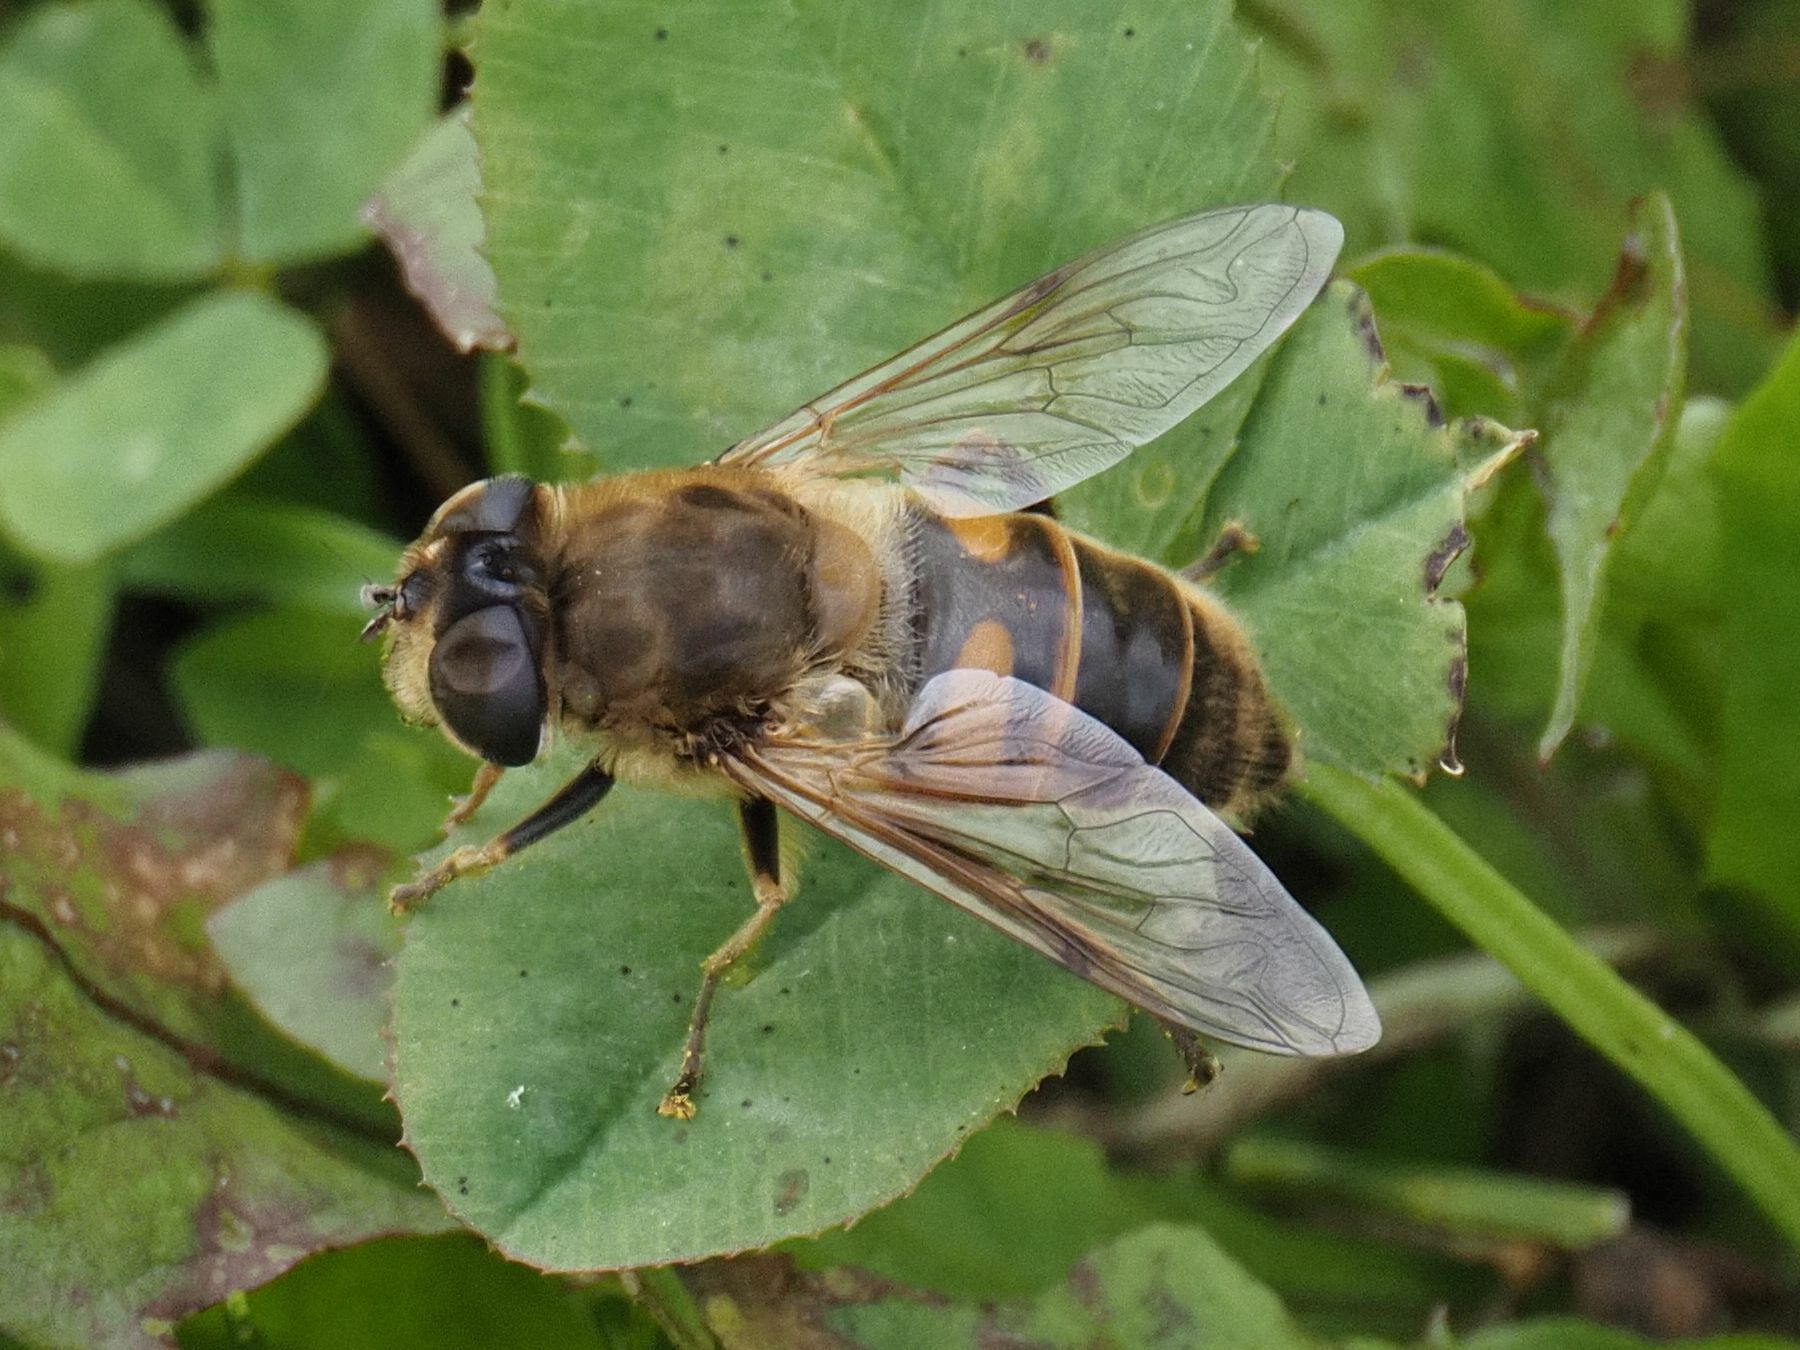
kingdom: Animalia
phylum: Arthropoda
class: Insecta
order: Diptera
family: Syrphidae
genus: Eristalis
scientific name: Eristalis tenax
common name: Drone fly
